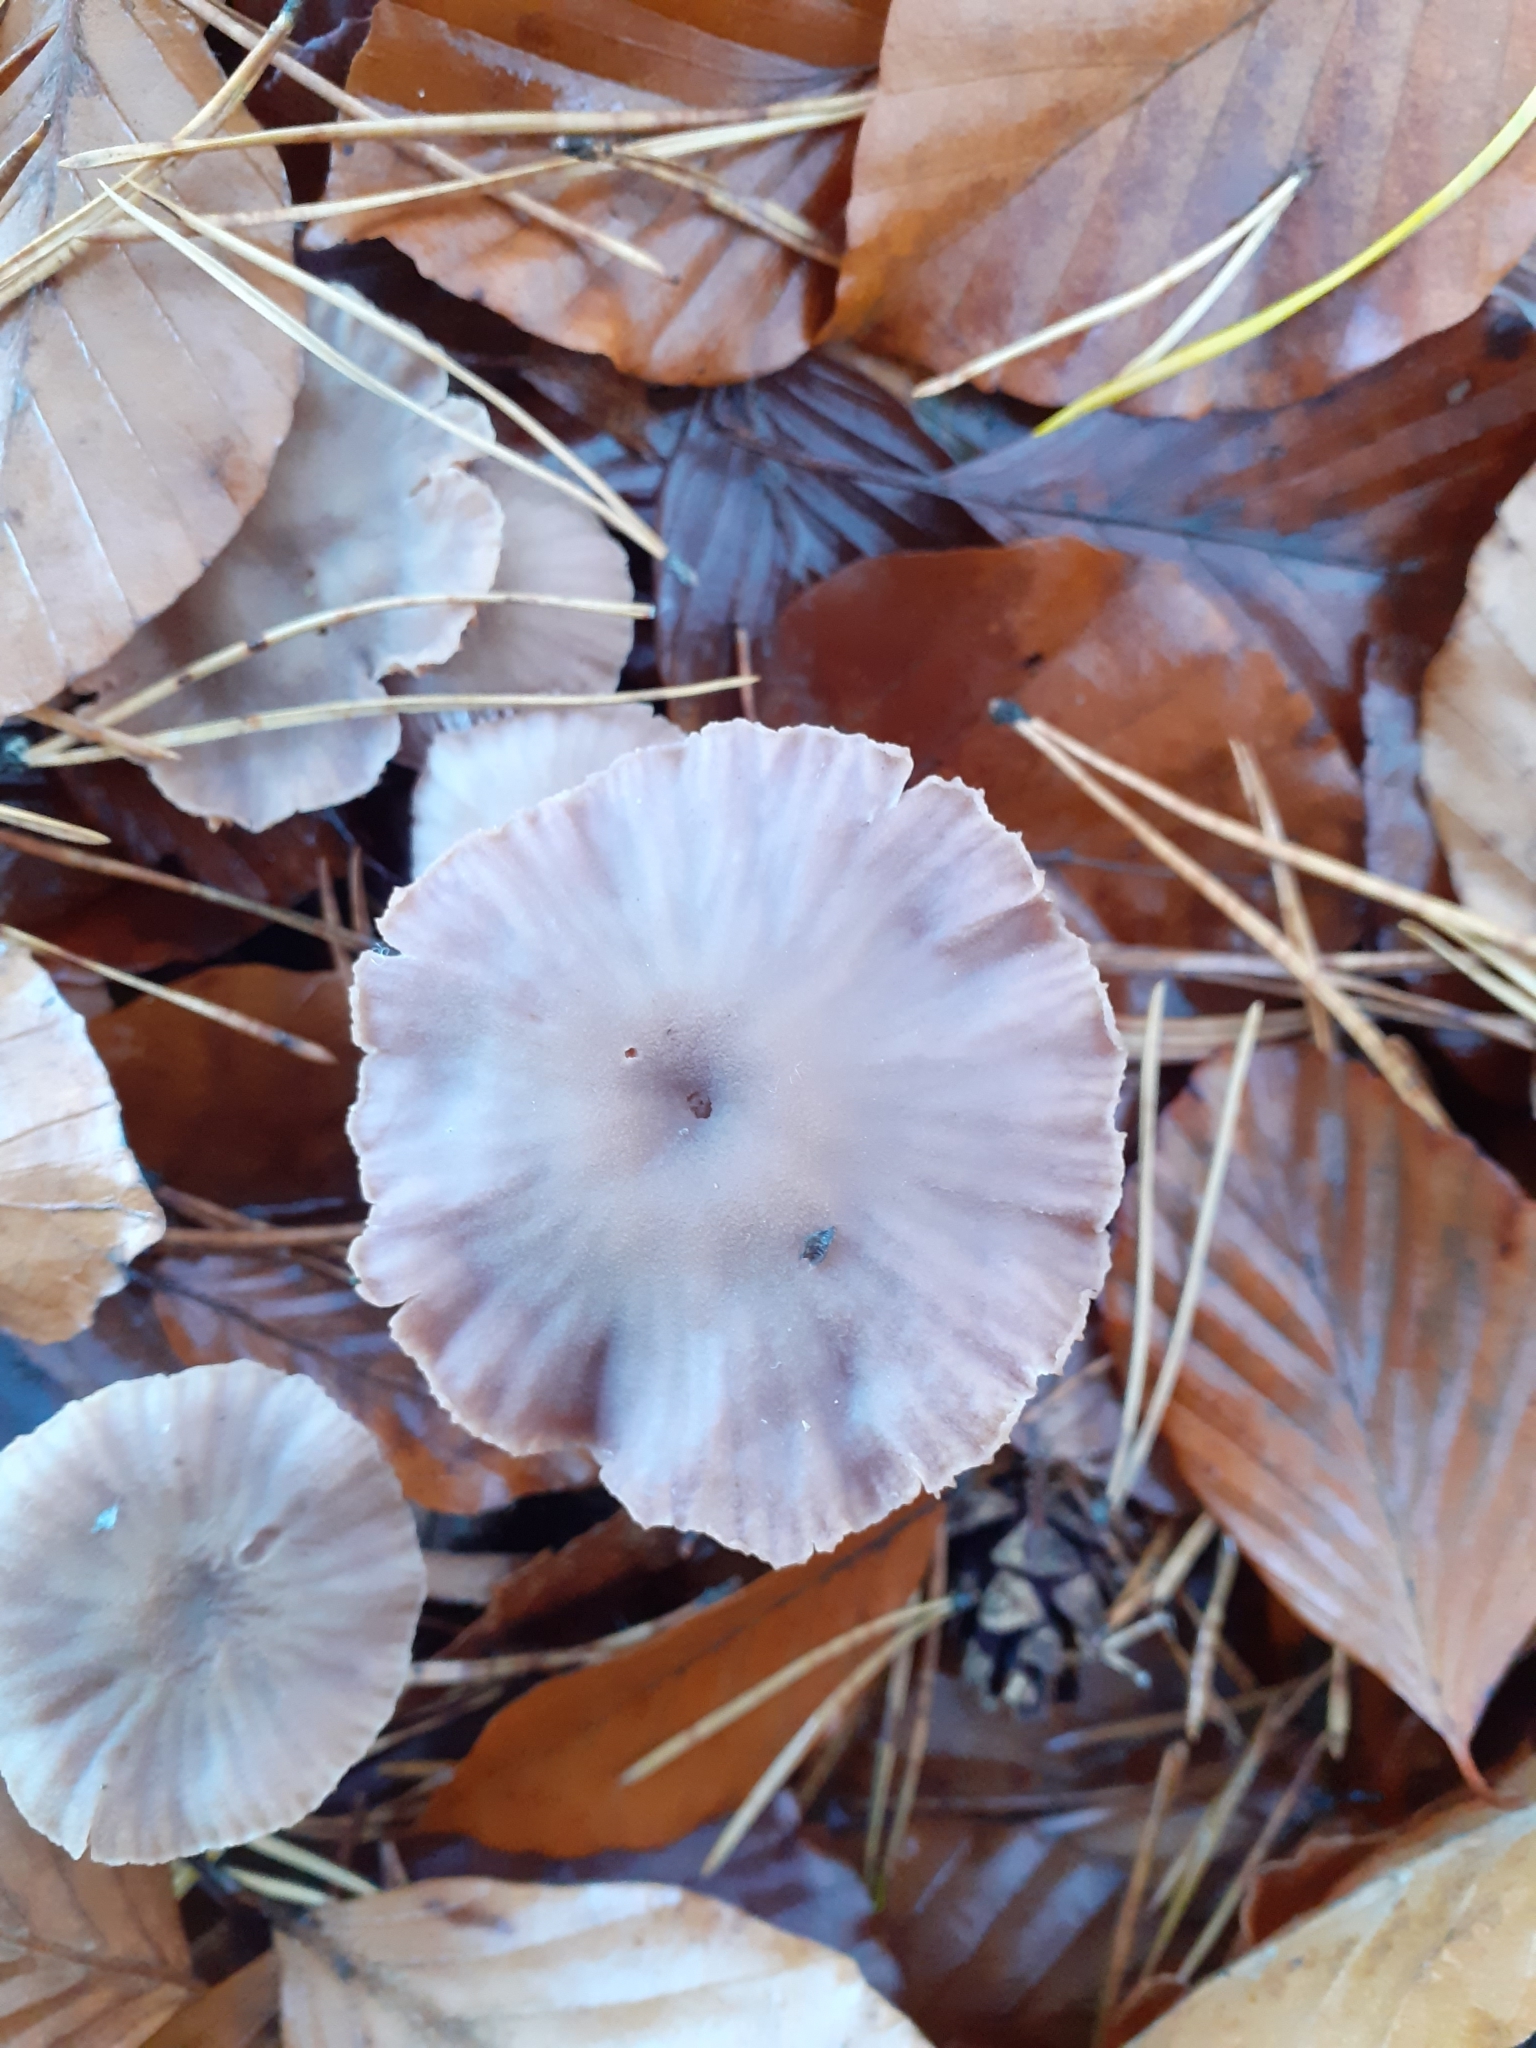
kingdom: Fungi
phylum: Basidiomycota
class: Agaricomycetes
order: Agaricales
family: Hydnangiaceae
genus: Laccaria
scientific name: Laccaria amethystina
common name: Amethyst deceiver
